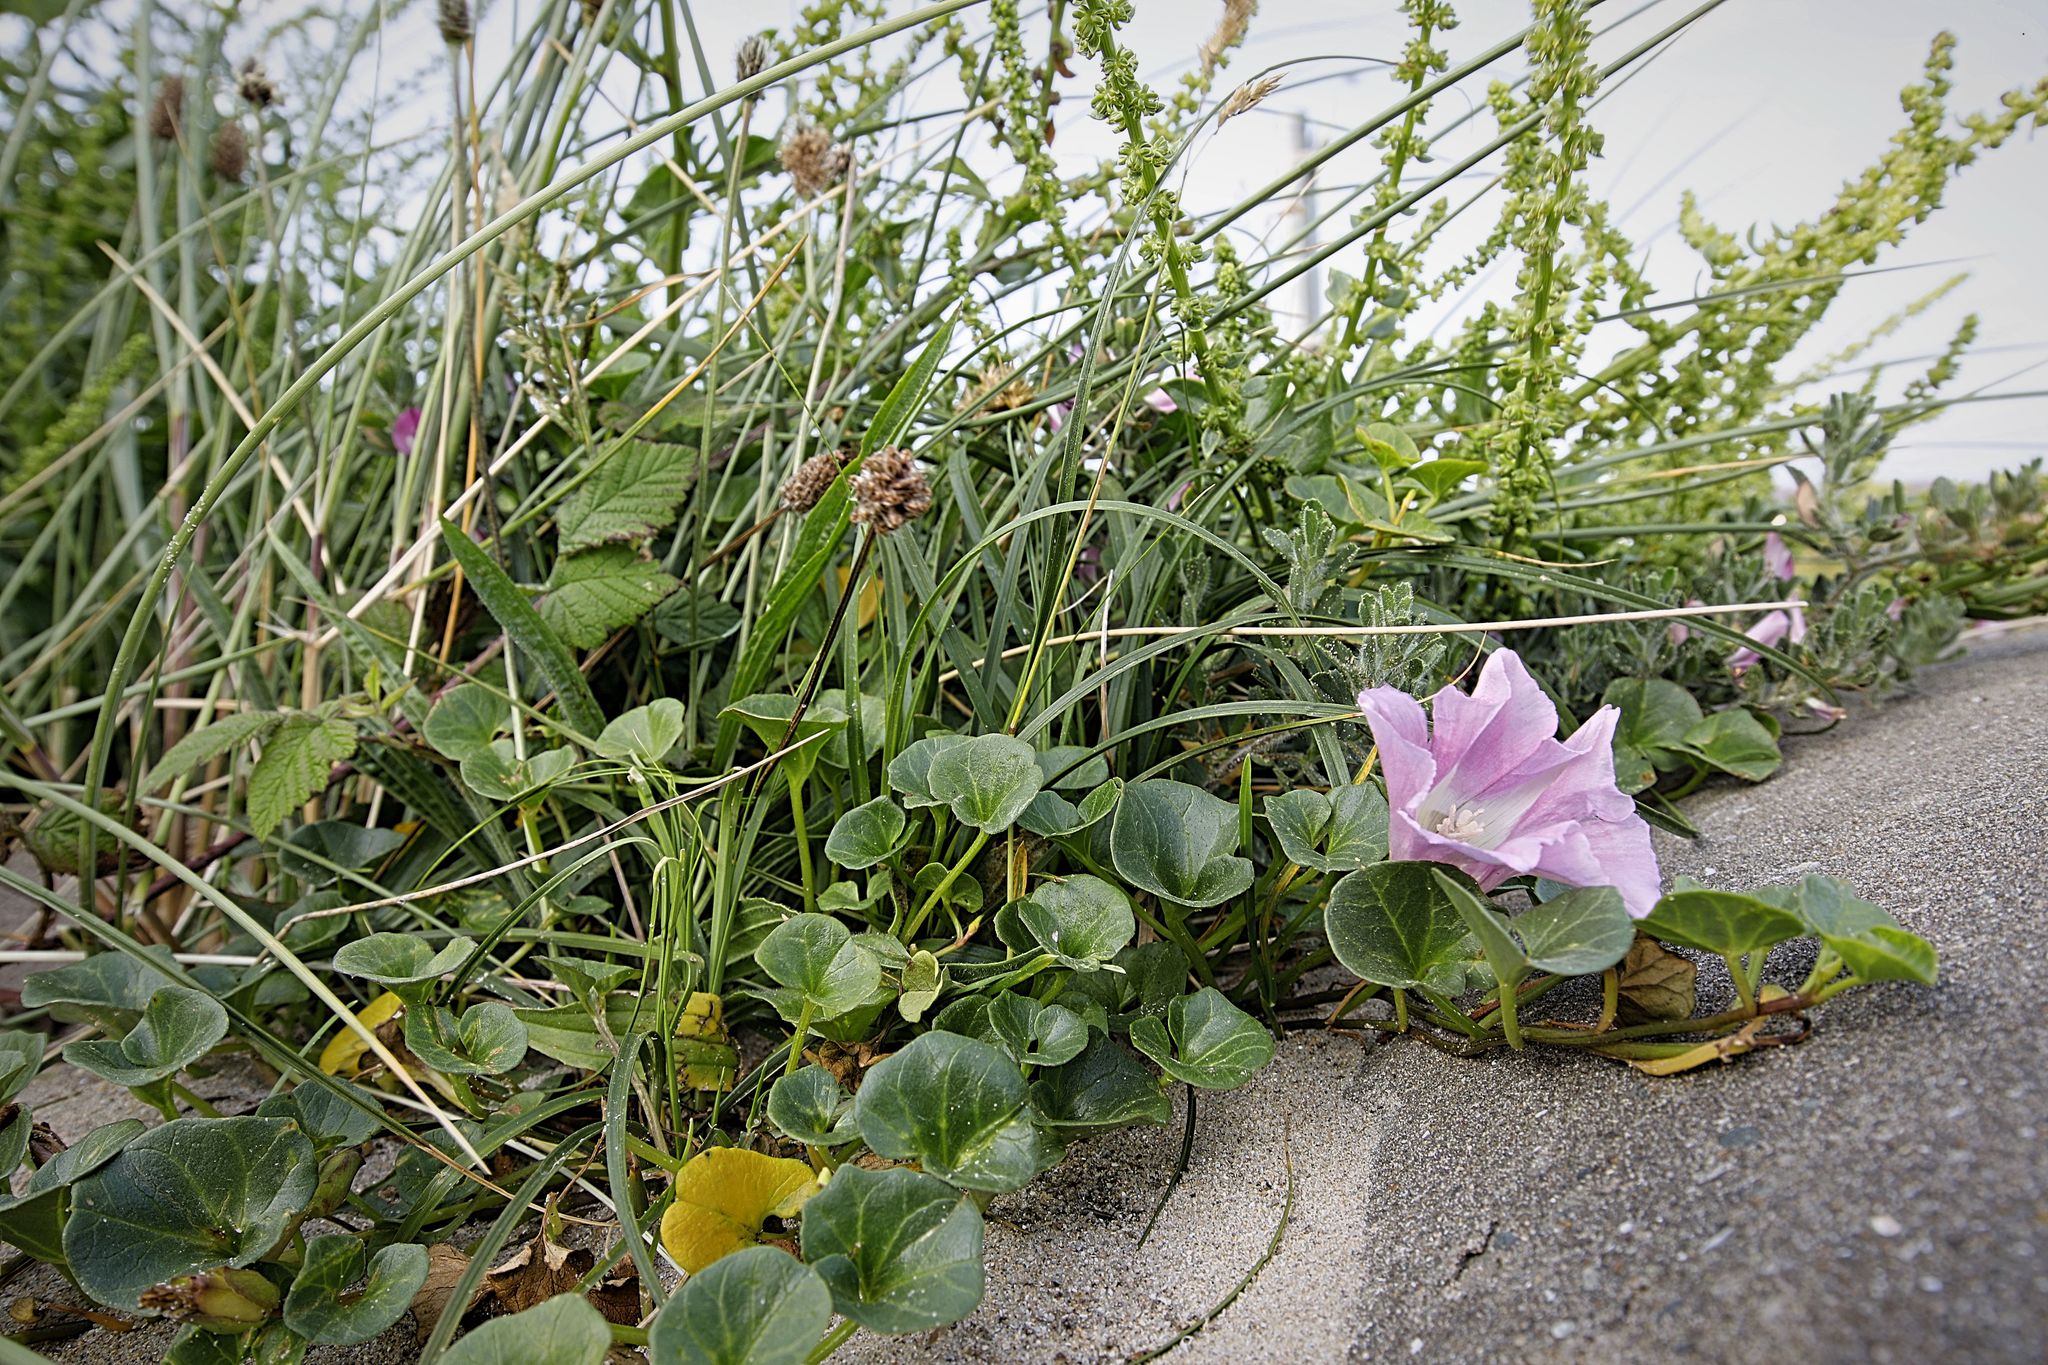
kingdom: Plantae
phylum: Tracheophyta
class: Magnoliopsida
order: Solanales
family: Convolvulaceae
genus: Calystegia
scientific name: Calystegia soldanella
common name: Sea bindweed
